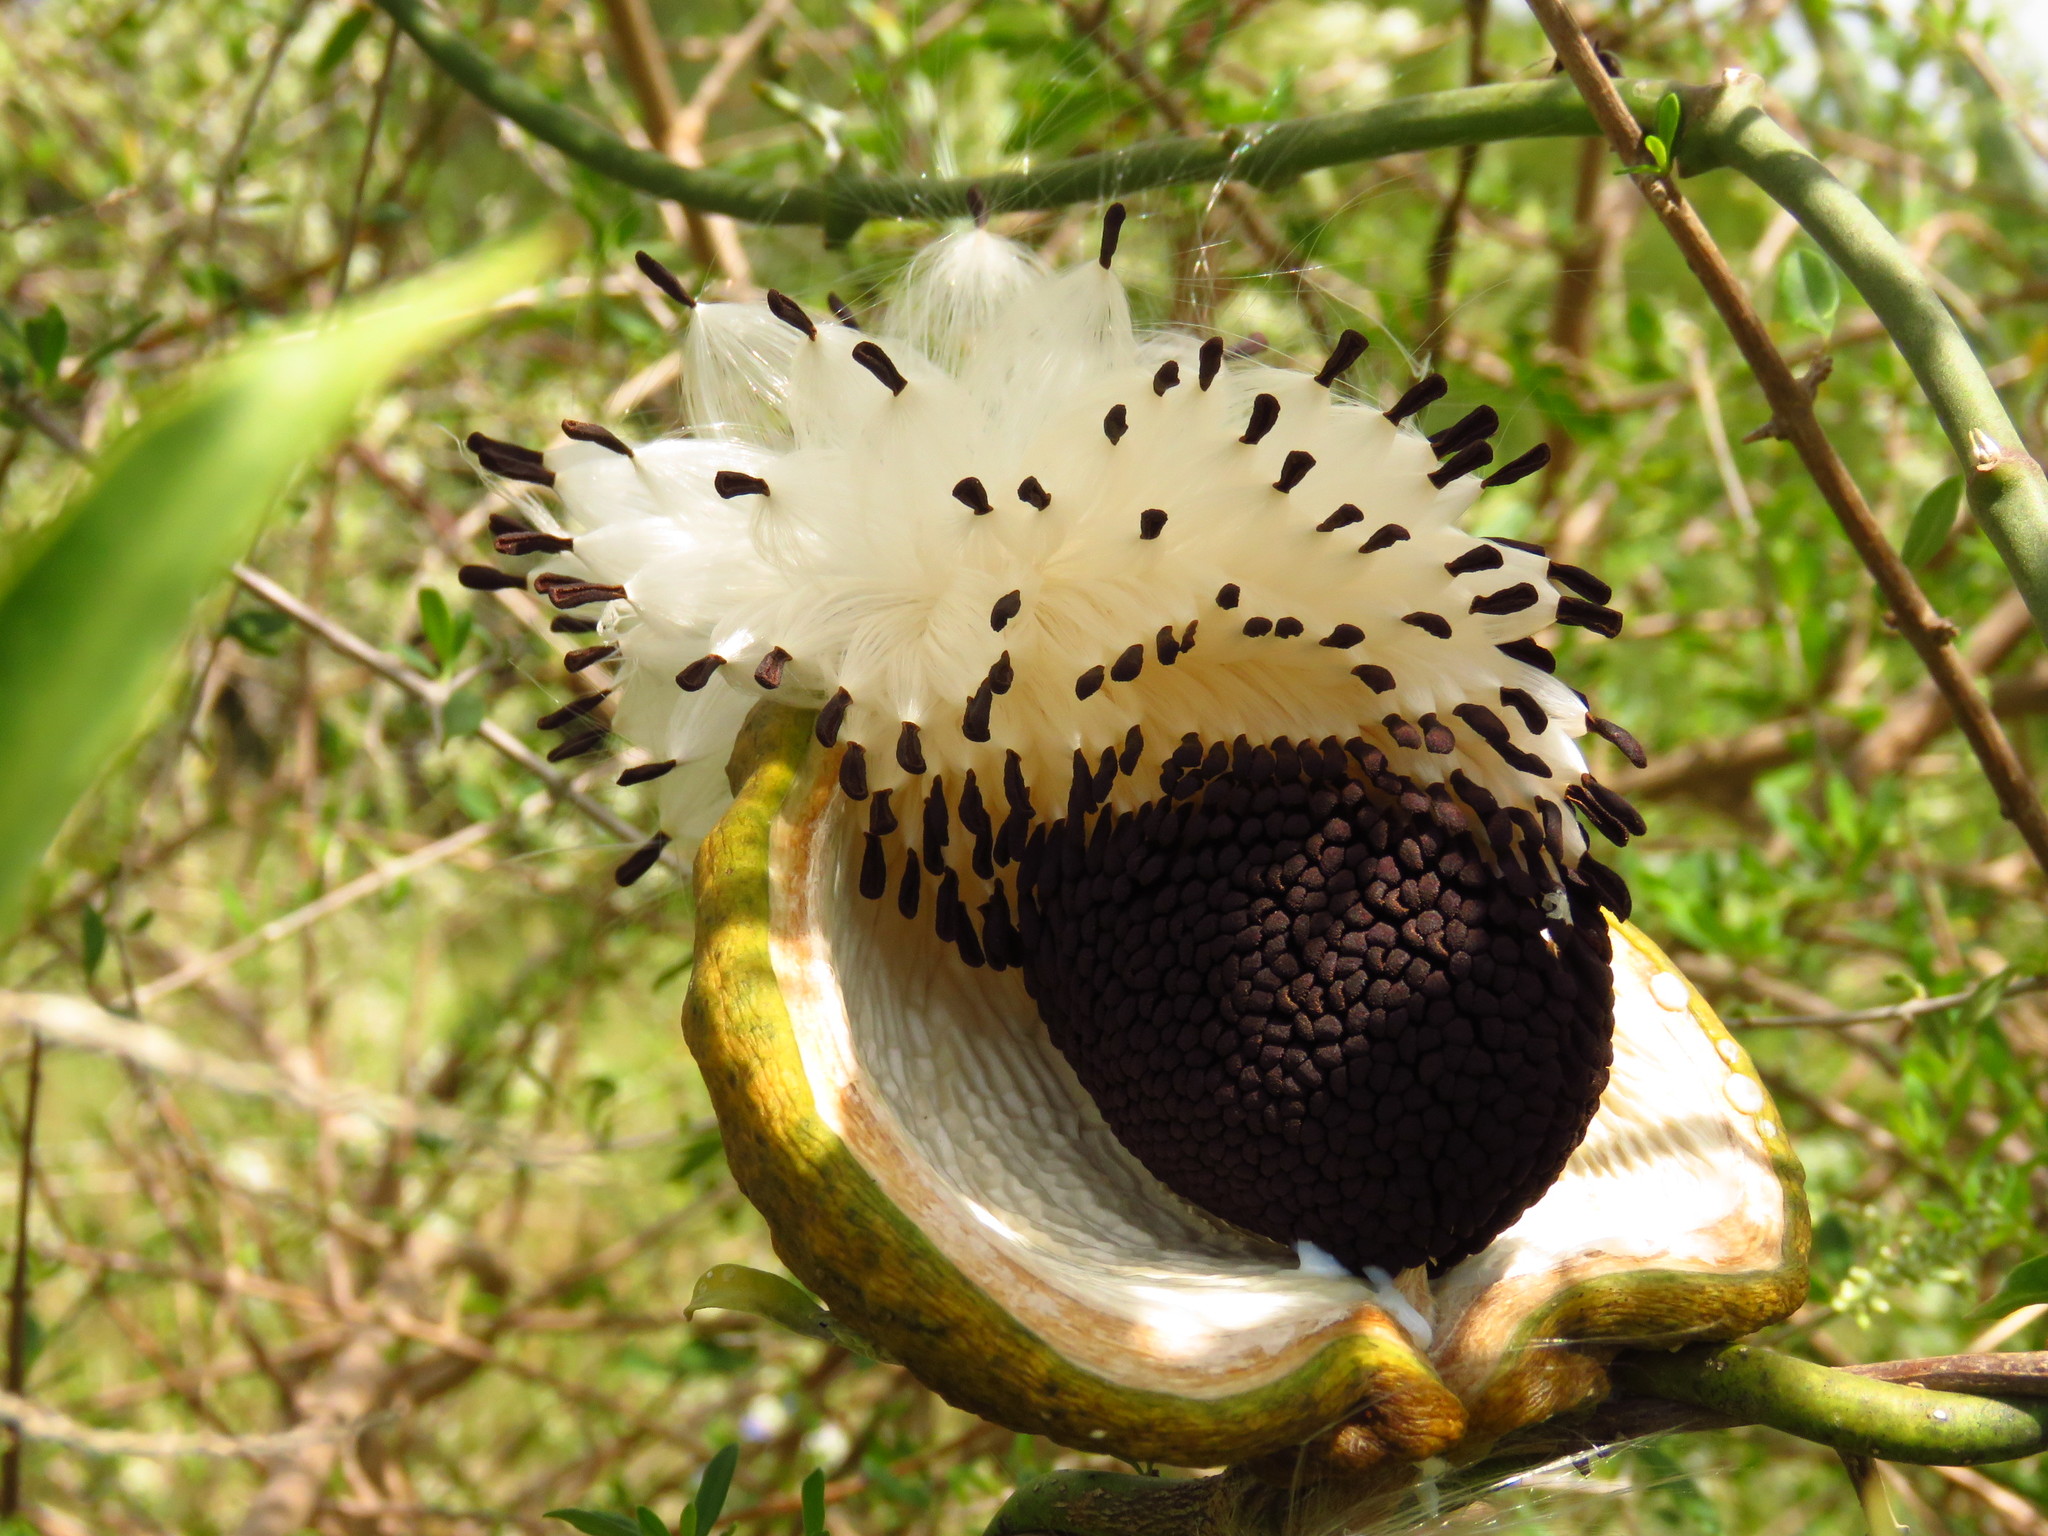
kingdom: Plantae
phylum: Tracheophyta
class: Magnoliopsida
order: Gentianales
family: Apocynaceae
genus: Araujia
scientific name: Araujia angustifolia
